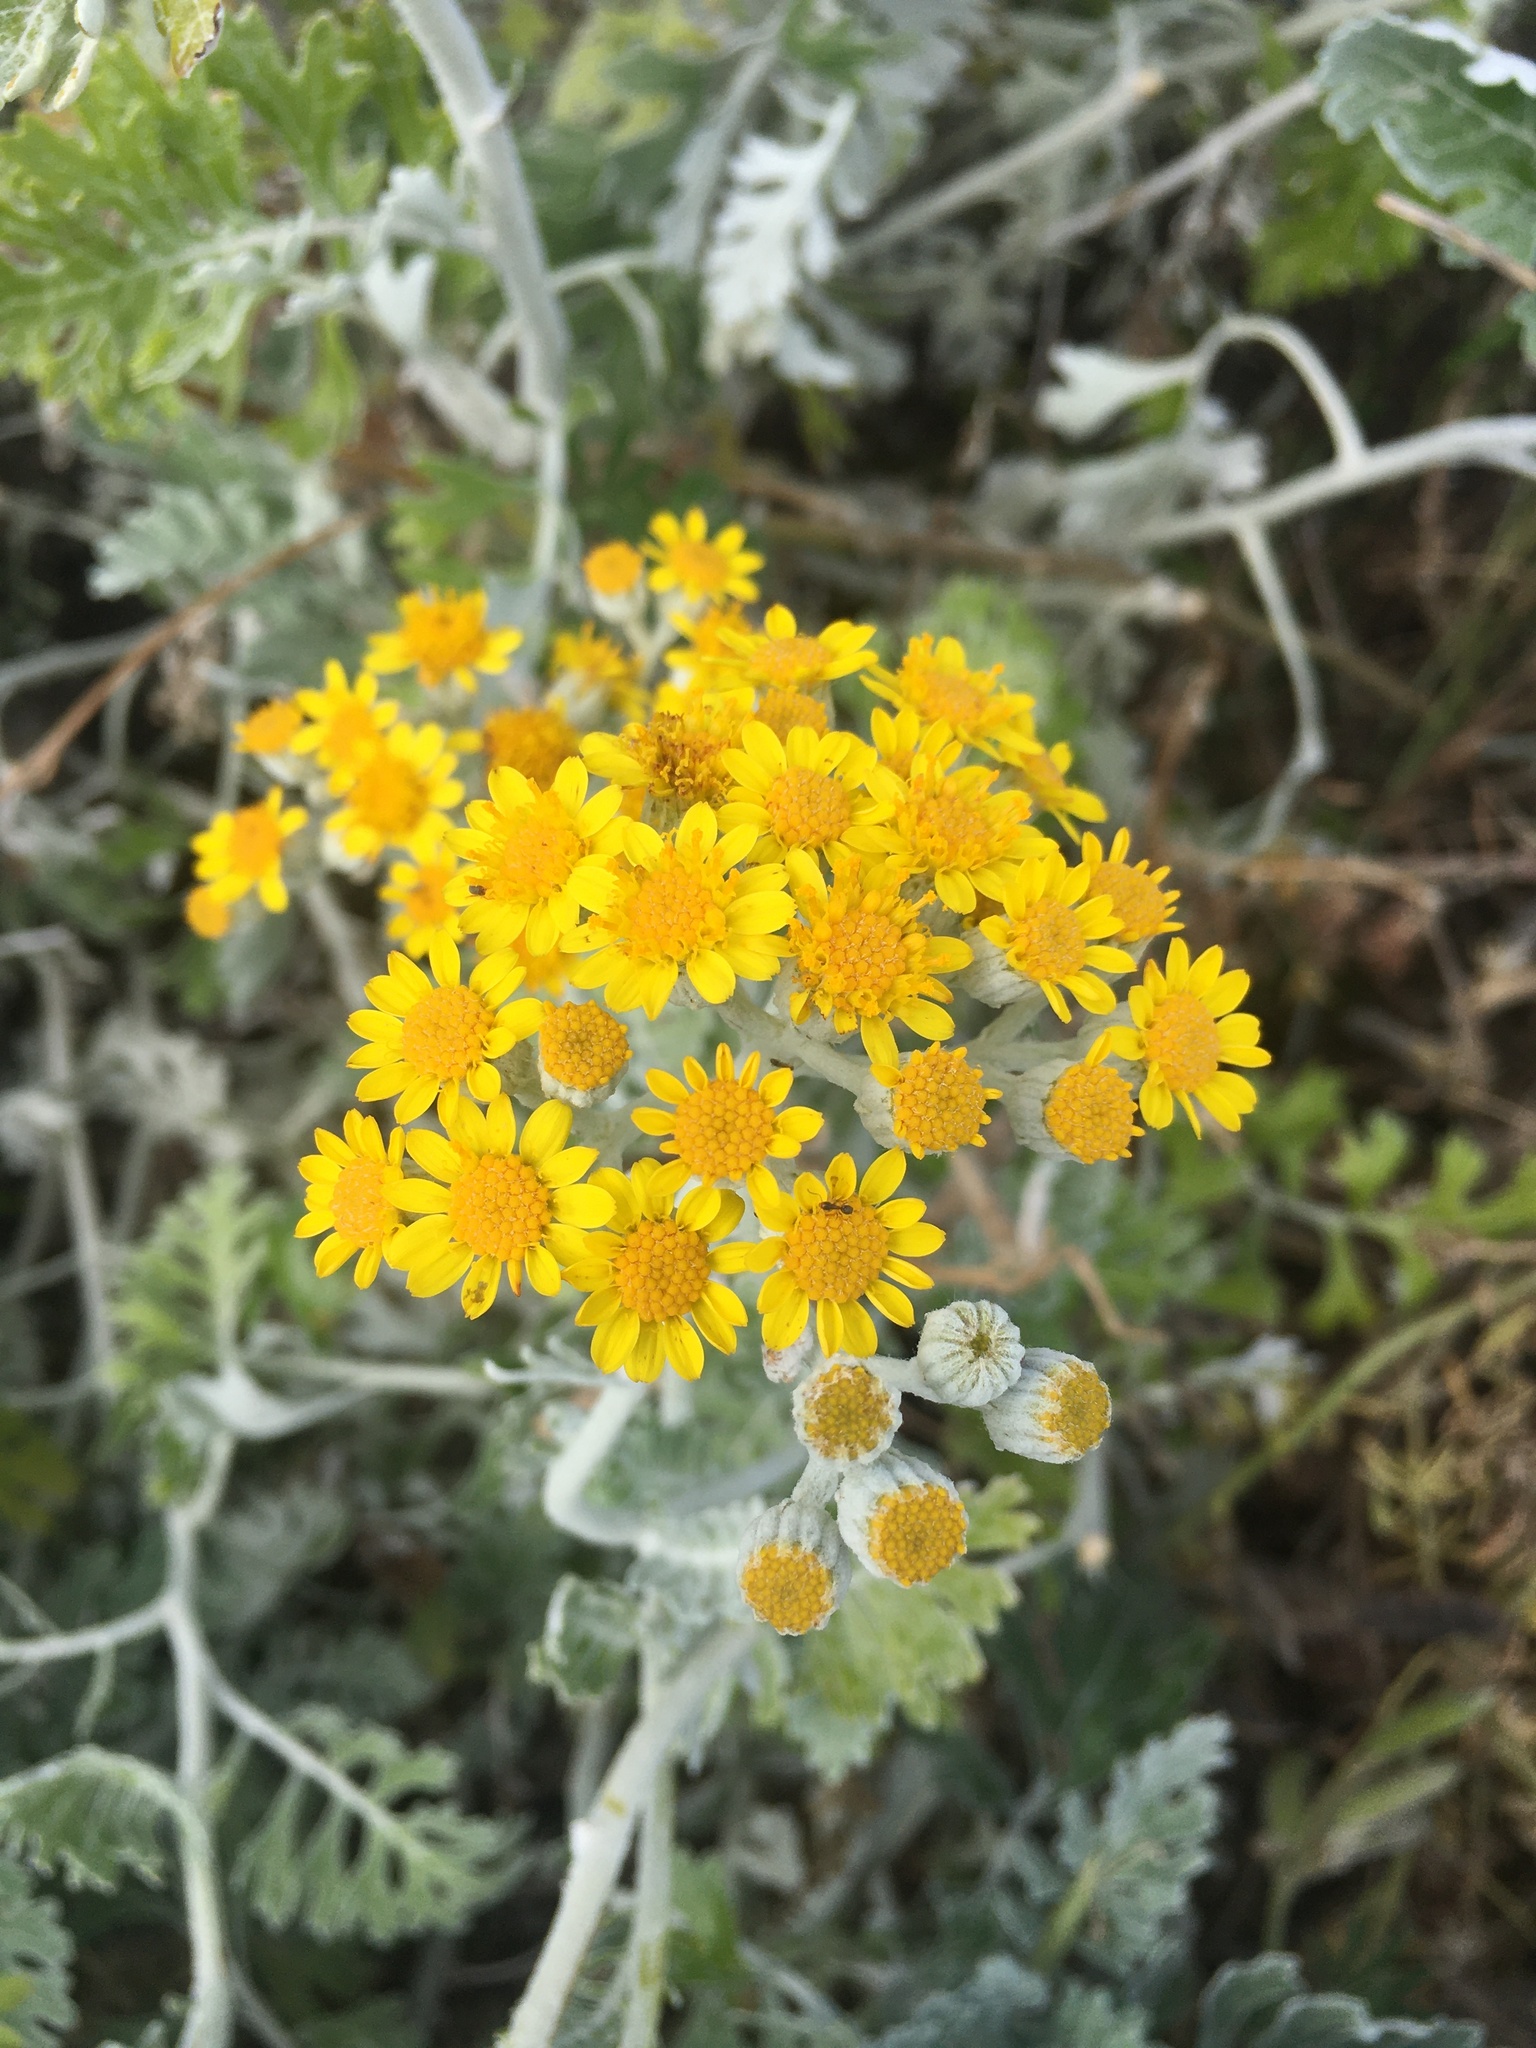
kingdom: Plantae
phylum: Tracheophyta
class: Magnoliopsida
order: Asterales
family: Asteraceae
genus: Jacobaea
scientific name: Jacobaea maritima
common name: Silver ragwort
